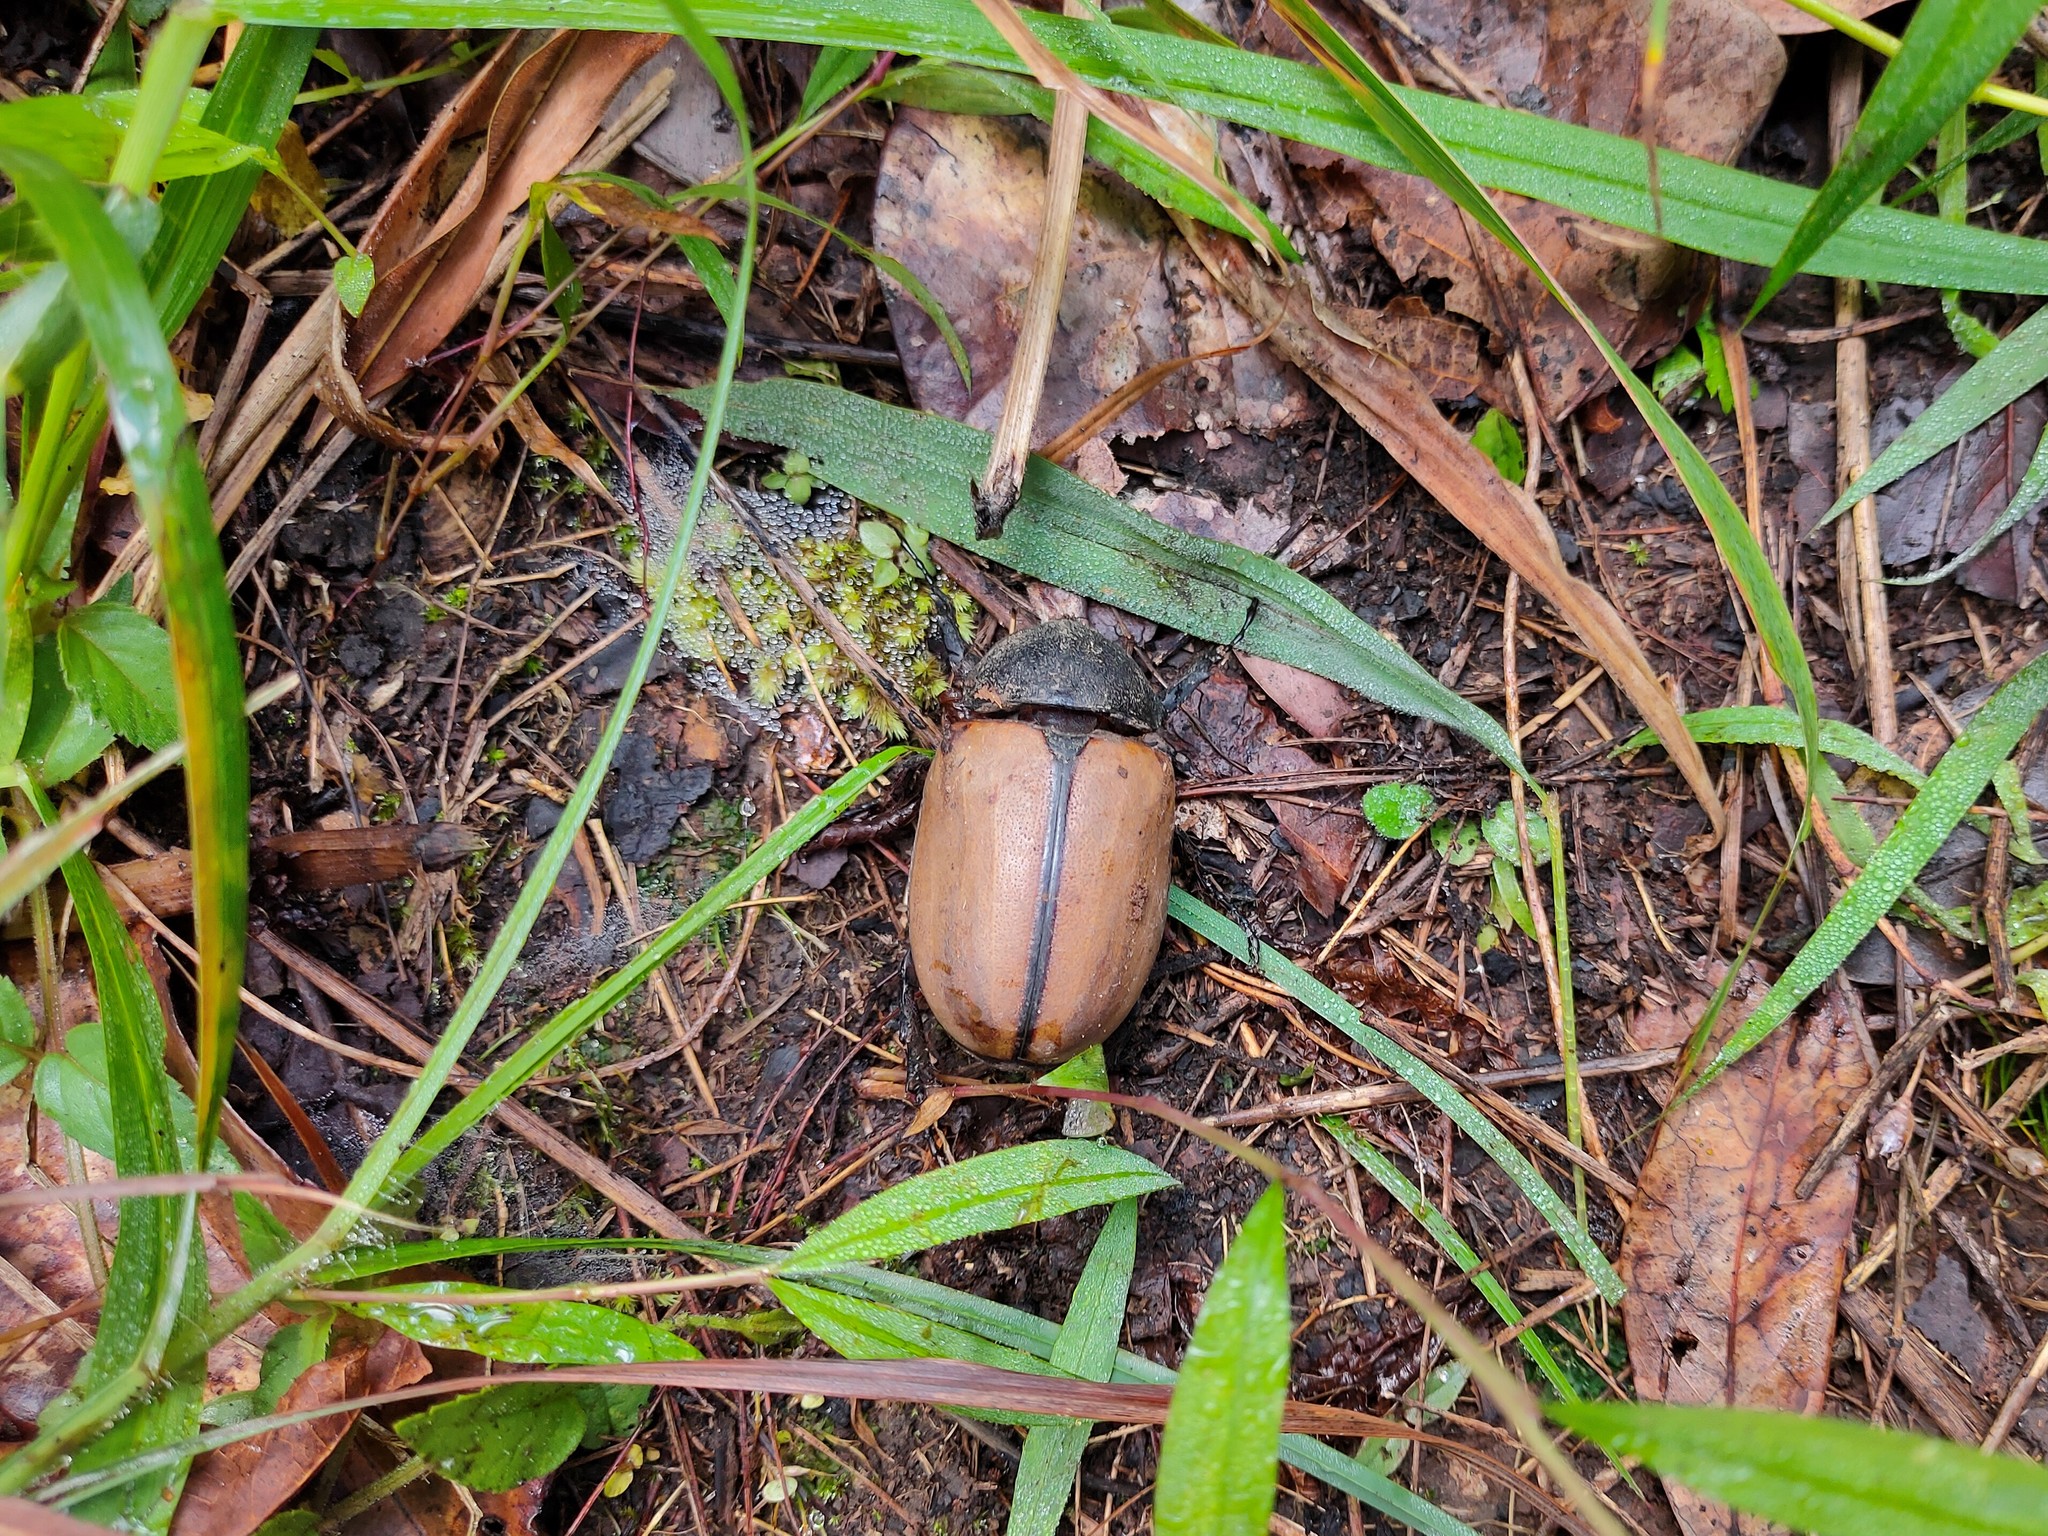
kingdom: Animalia
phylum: Arthropoda
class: Insecta
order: Coleoptera
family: Scarabaeidae
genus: Eupatorus
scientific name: Eupatorus gracilicornis
